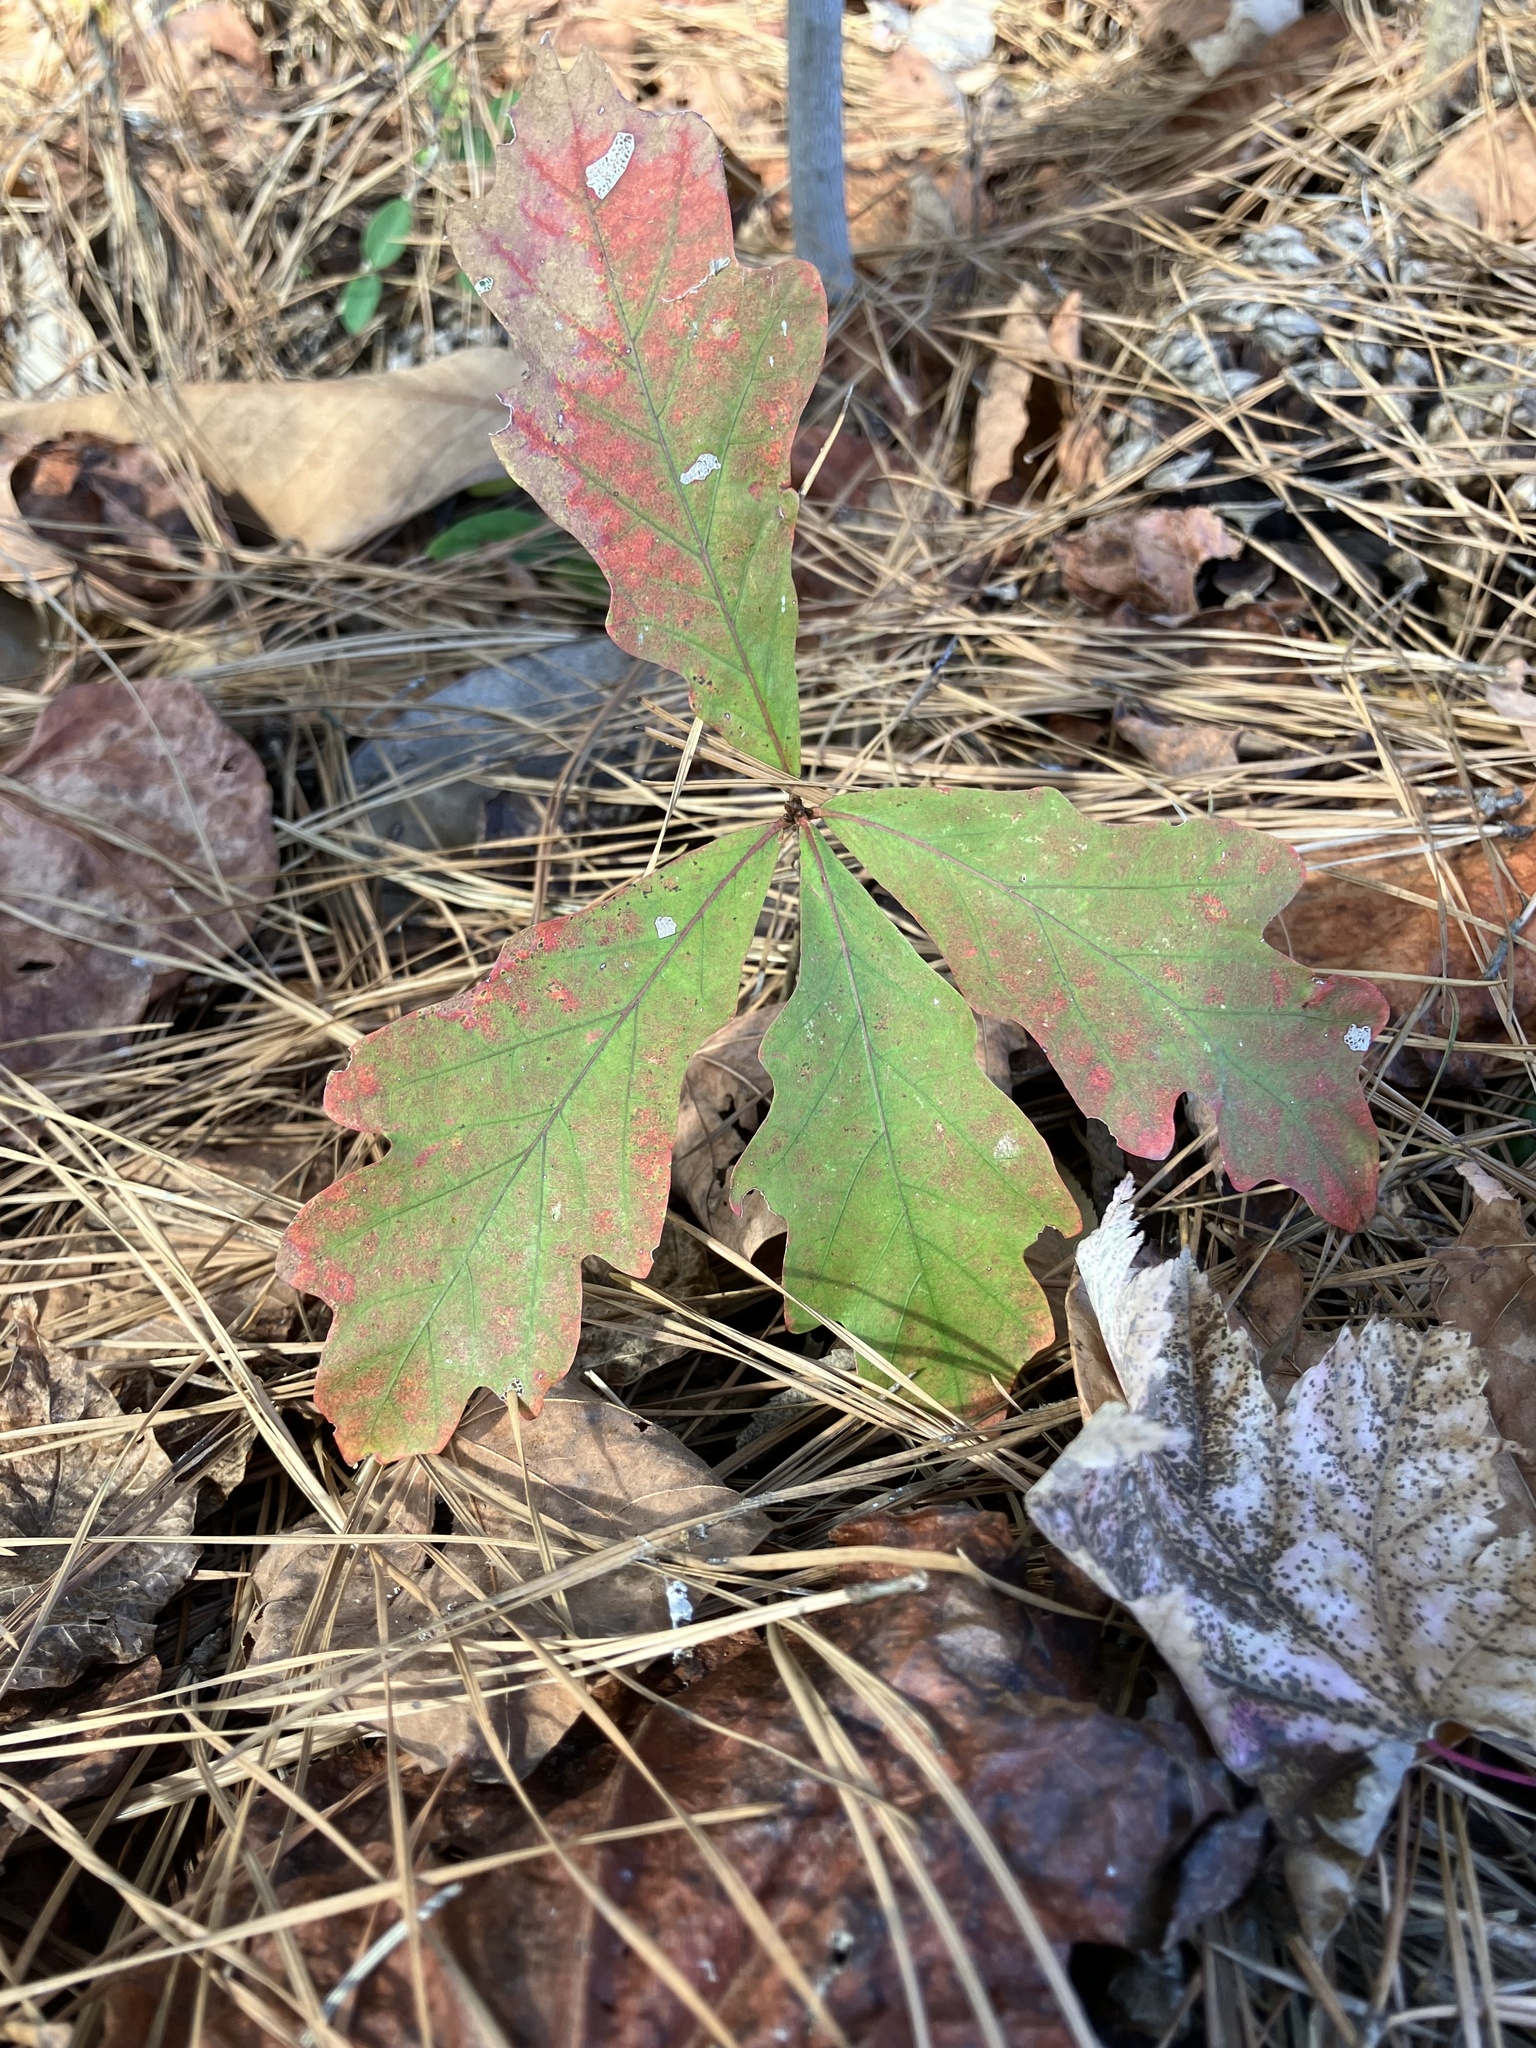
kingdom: Plantae
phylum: Tracheophyta
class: Magnoliopsida
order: Fagales
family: Fagaceae
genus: Quercus
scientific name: Quercus alba
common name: White oak
